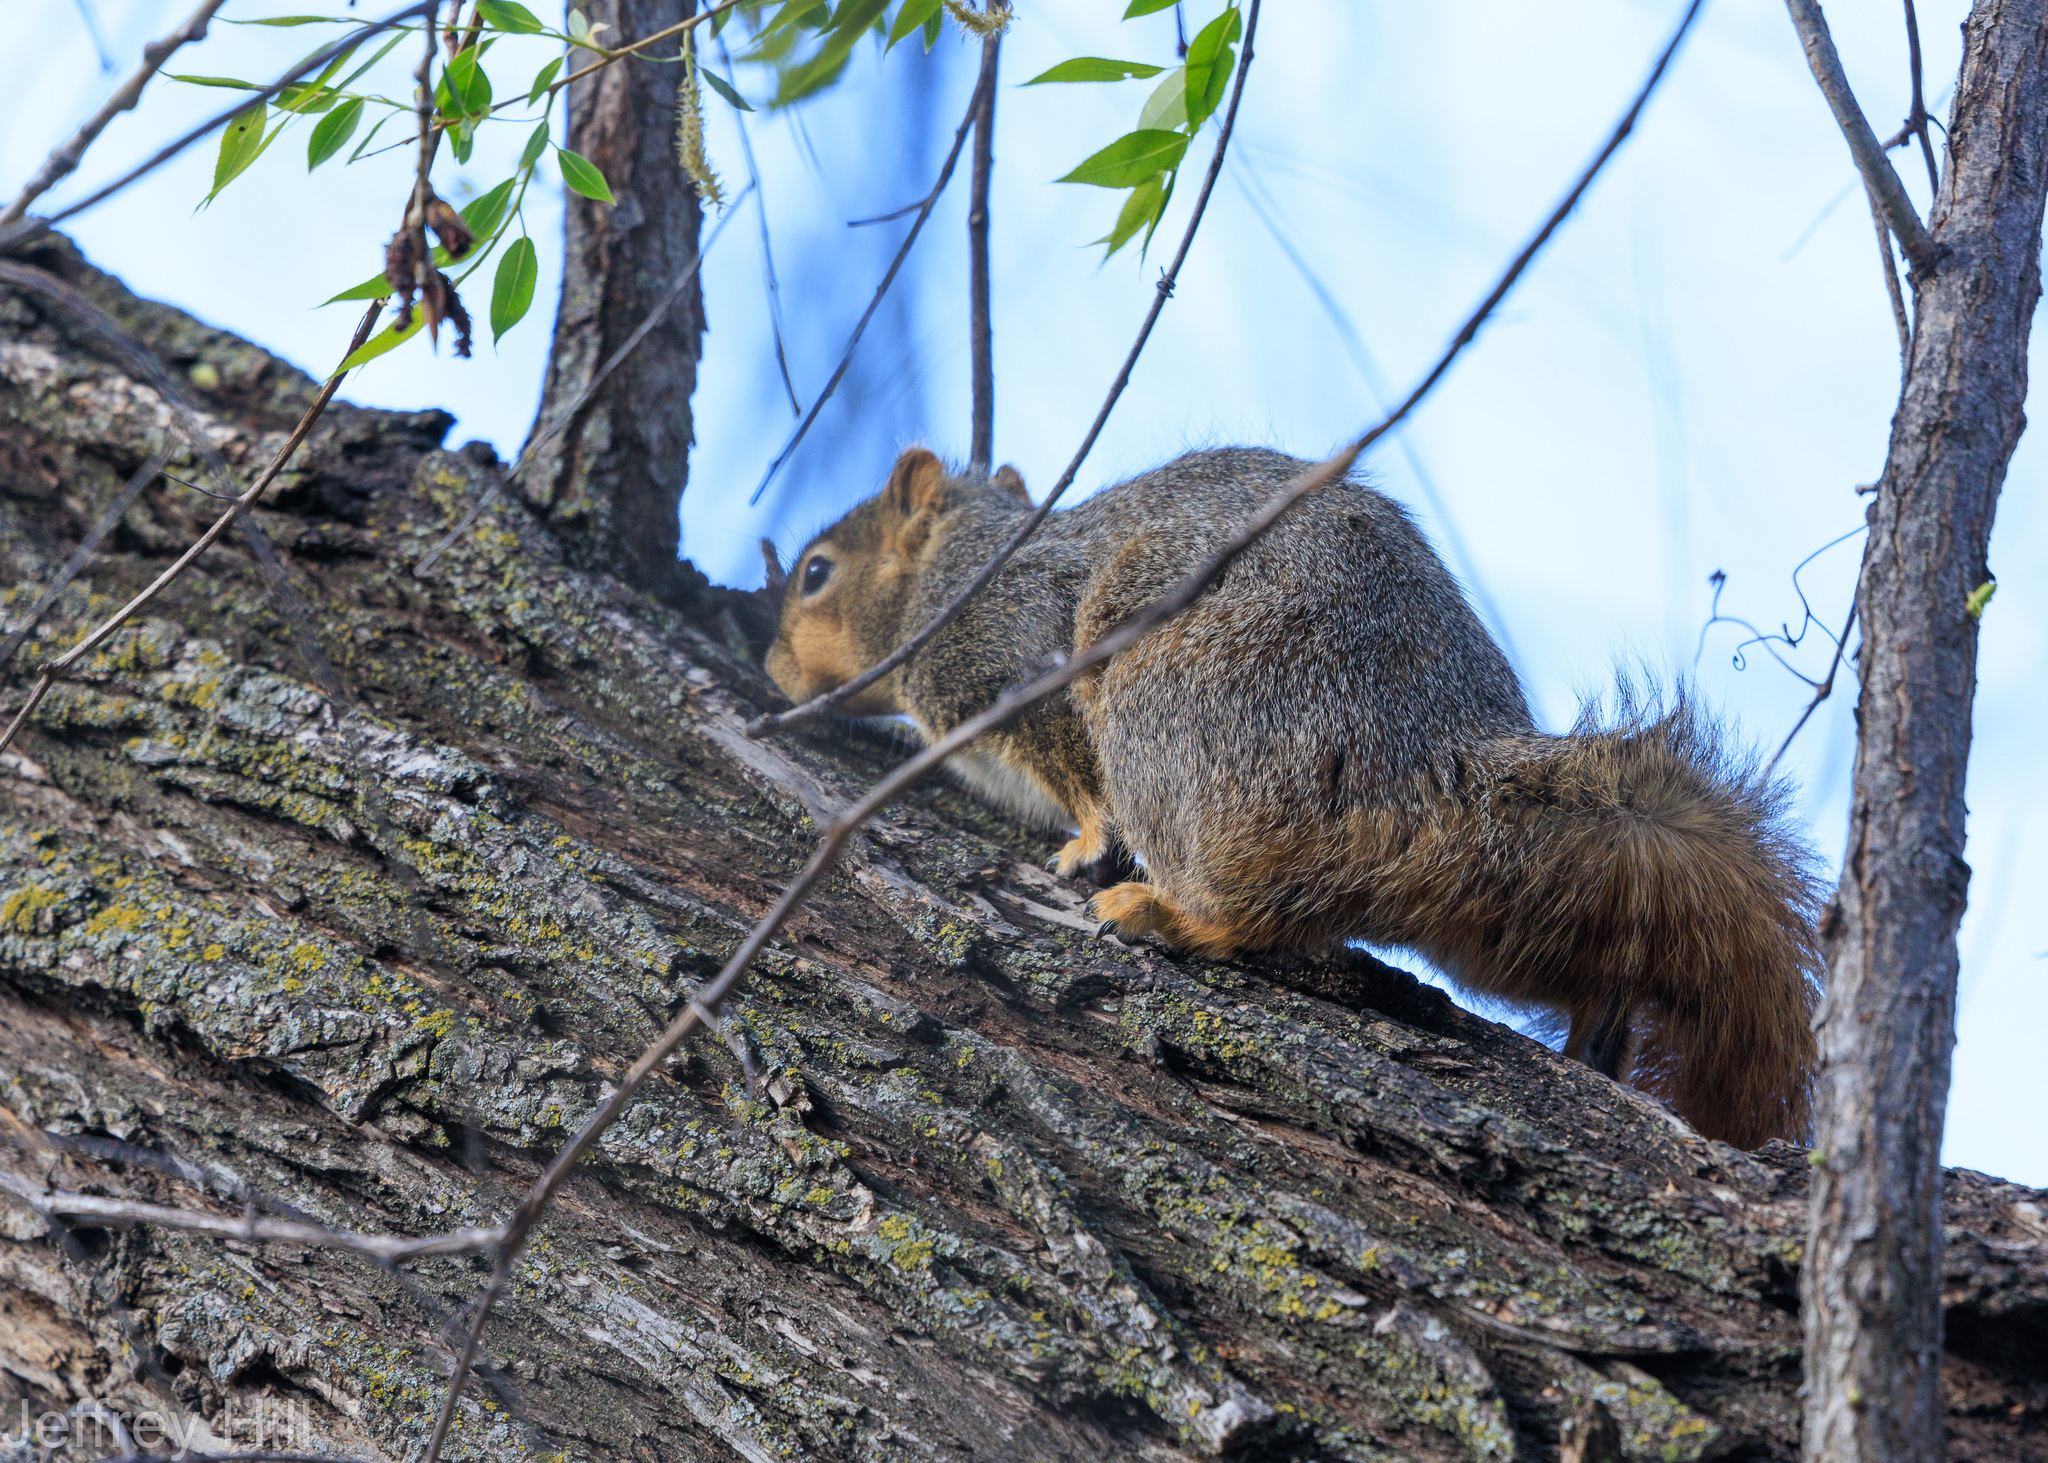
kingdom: Animalia
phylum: Chordata
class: Mammalia
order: Rodentia
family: Sciuridae
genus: Sciurus
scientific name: Sciurus niger
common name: Fox squirrel
